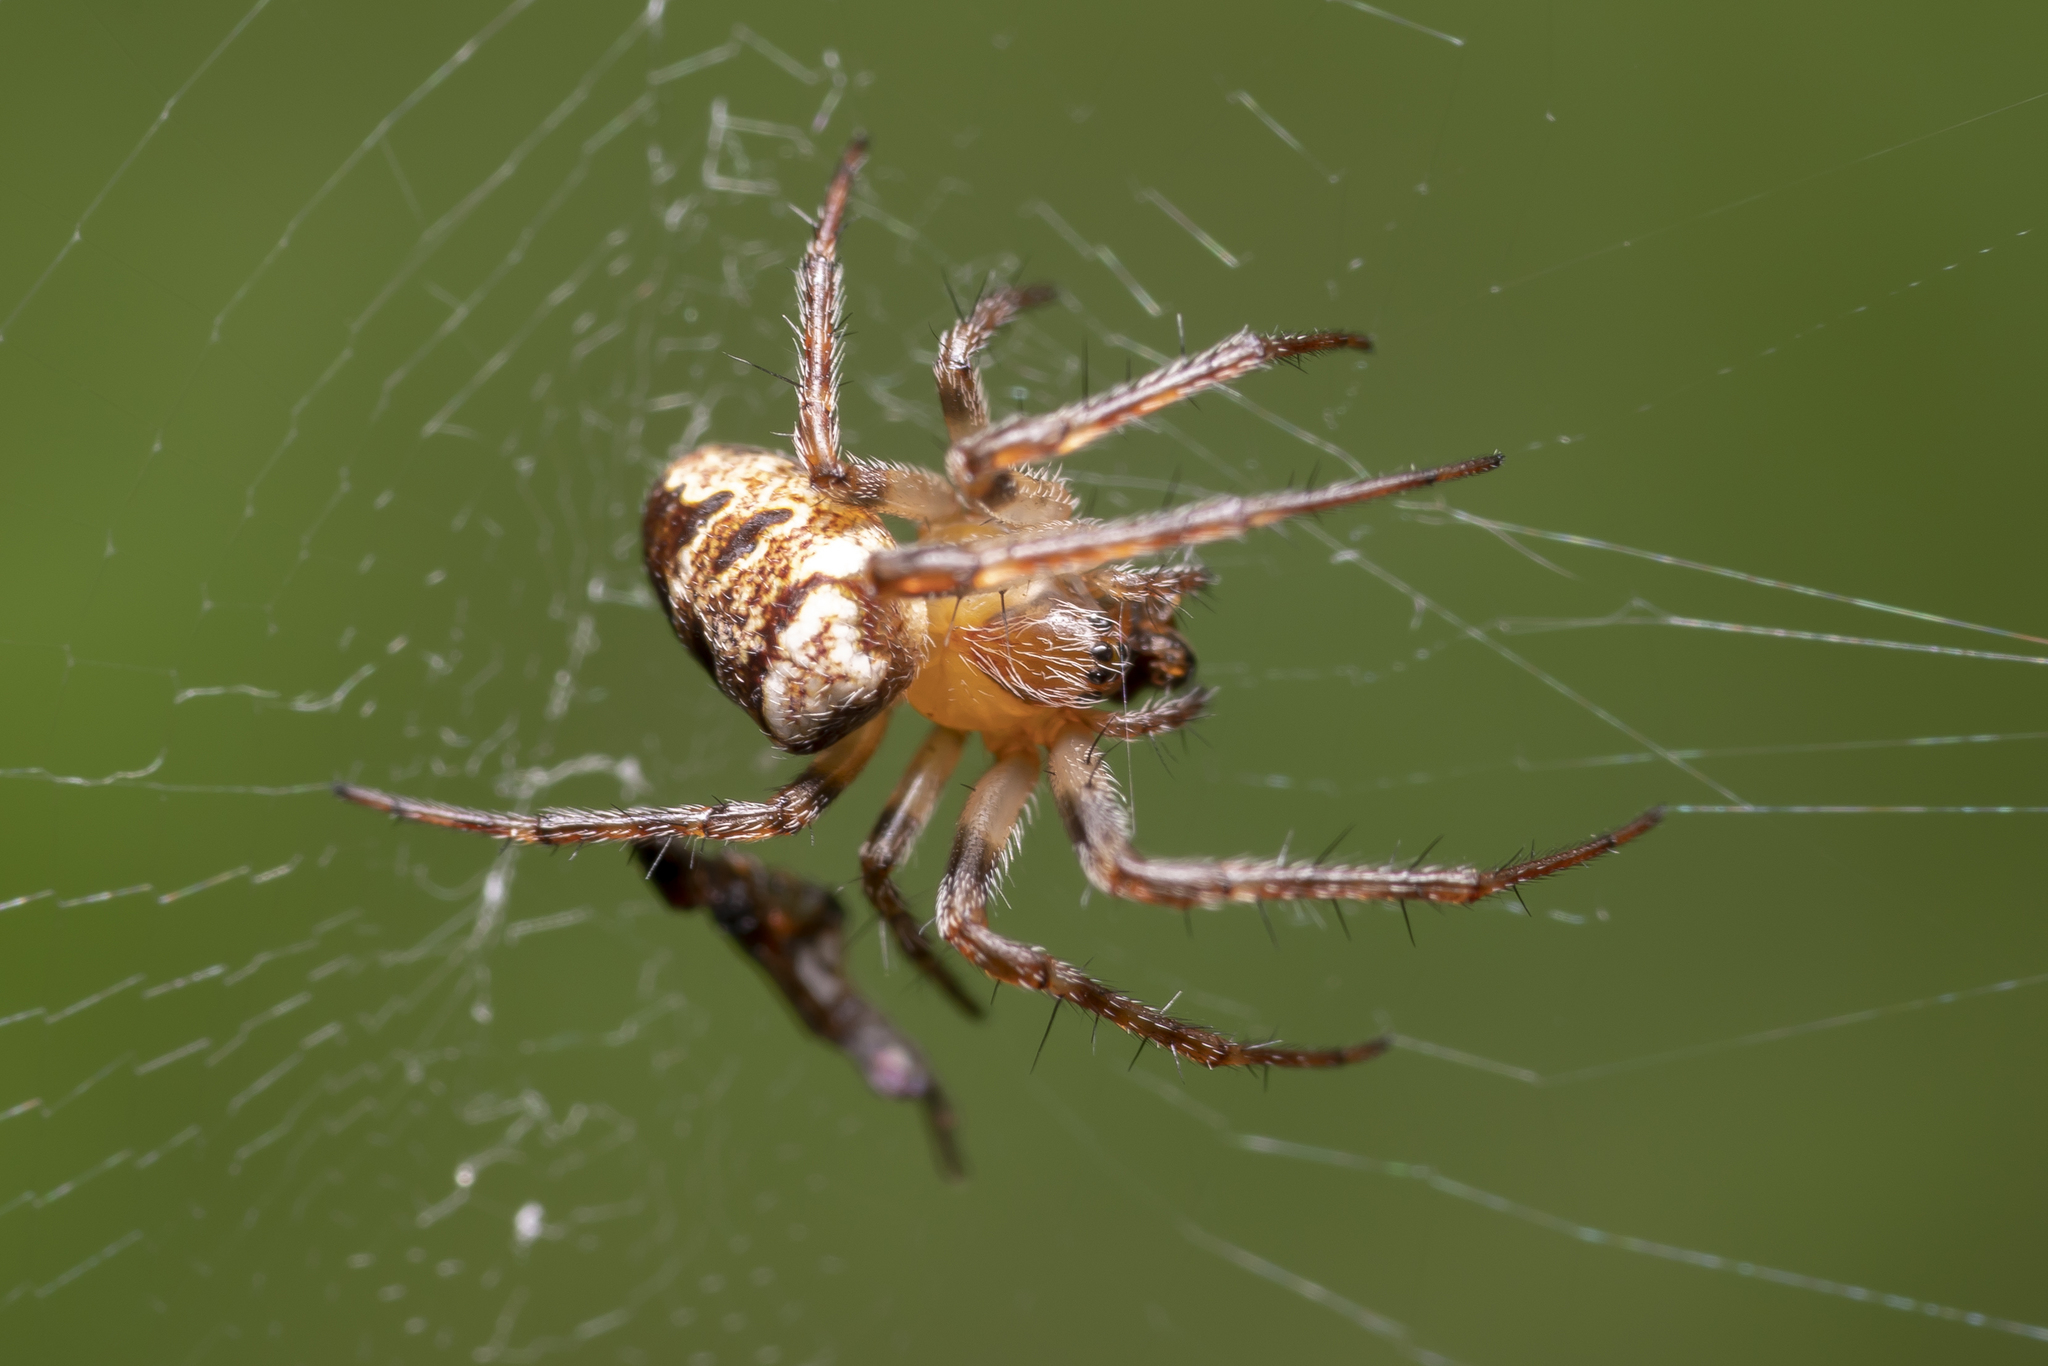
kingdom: Animalia
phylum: Arthropoda
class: Arachnida
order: Araneae
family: Araneidae
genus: Zilla
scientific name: Zilla diodia
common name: Zilla diodia
